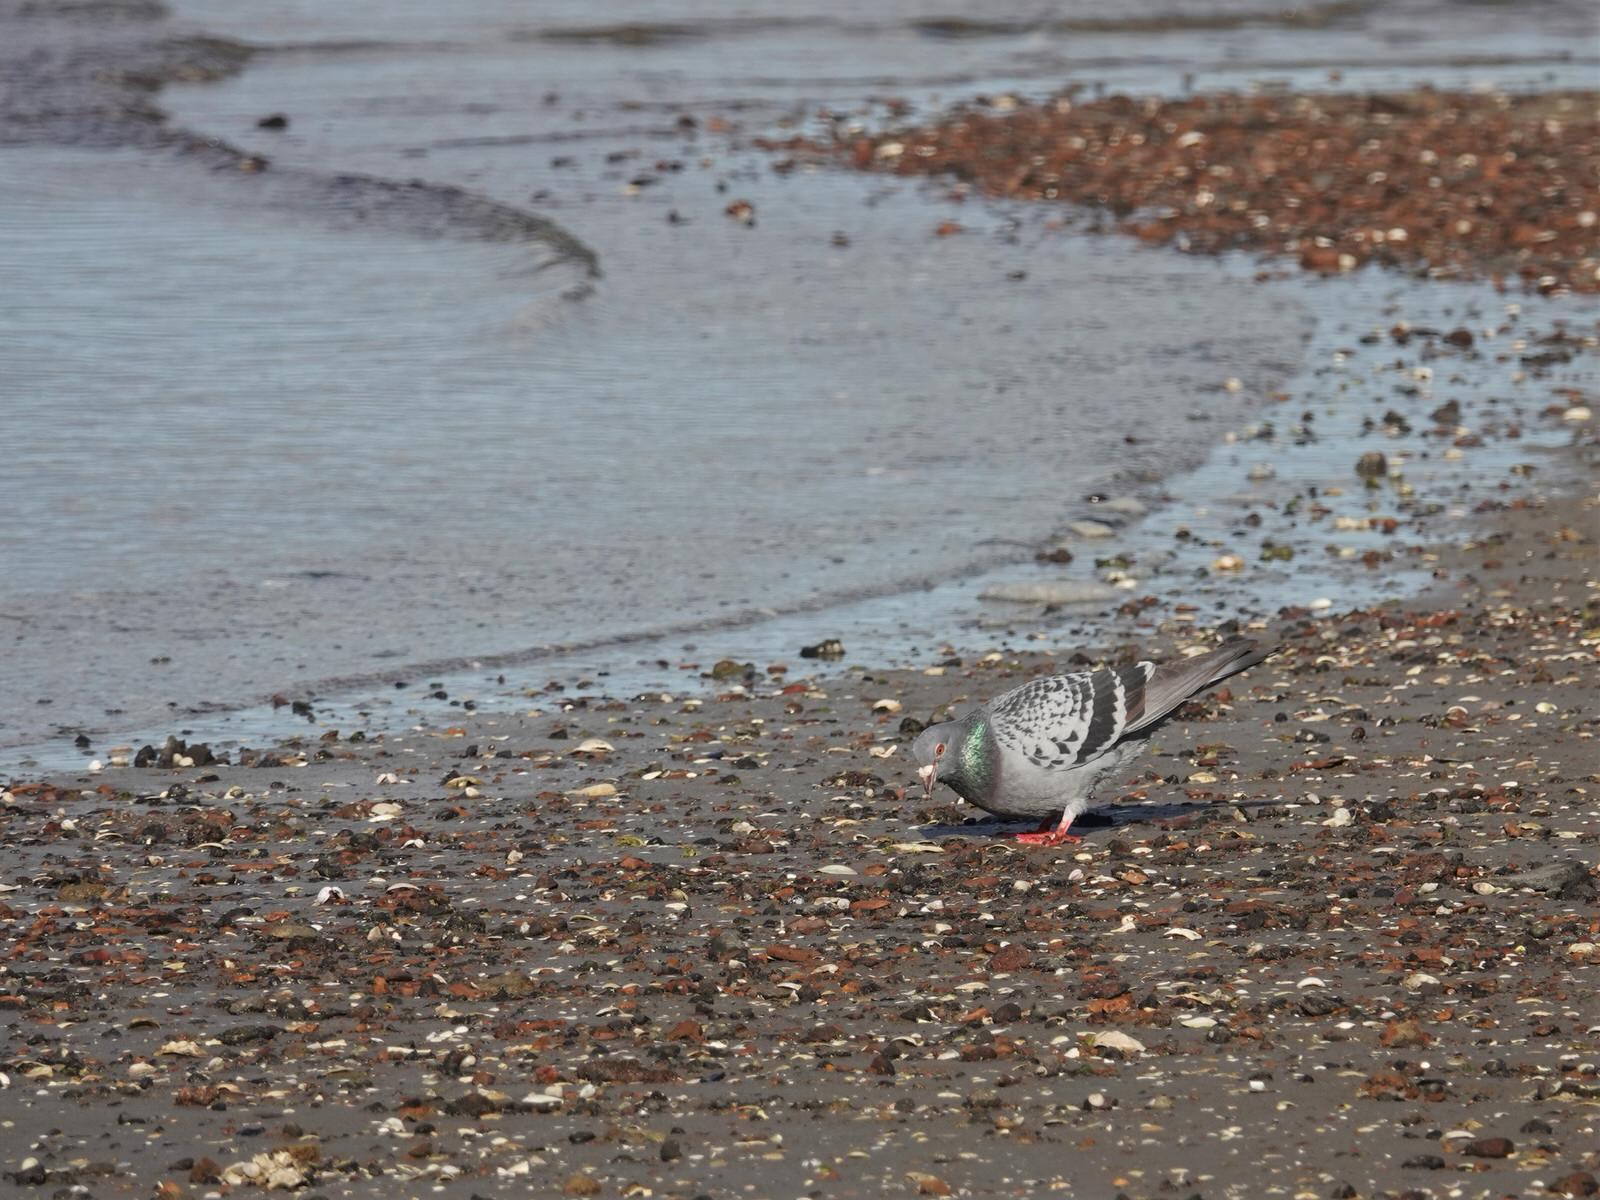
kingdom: Animalia
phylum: Chordata
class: Aves
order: Columbiformes
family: Columbidae
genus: Columba
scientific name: Columba livia
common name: Rock pigeon
